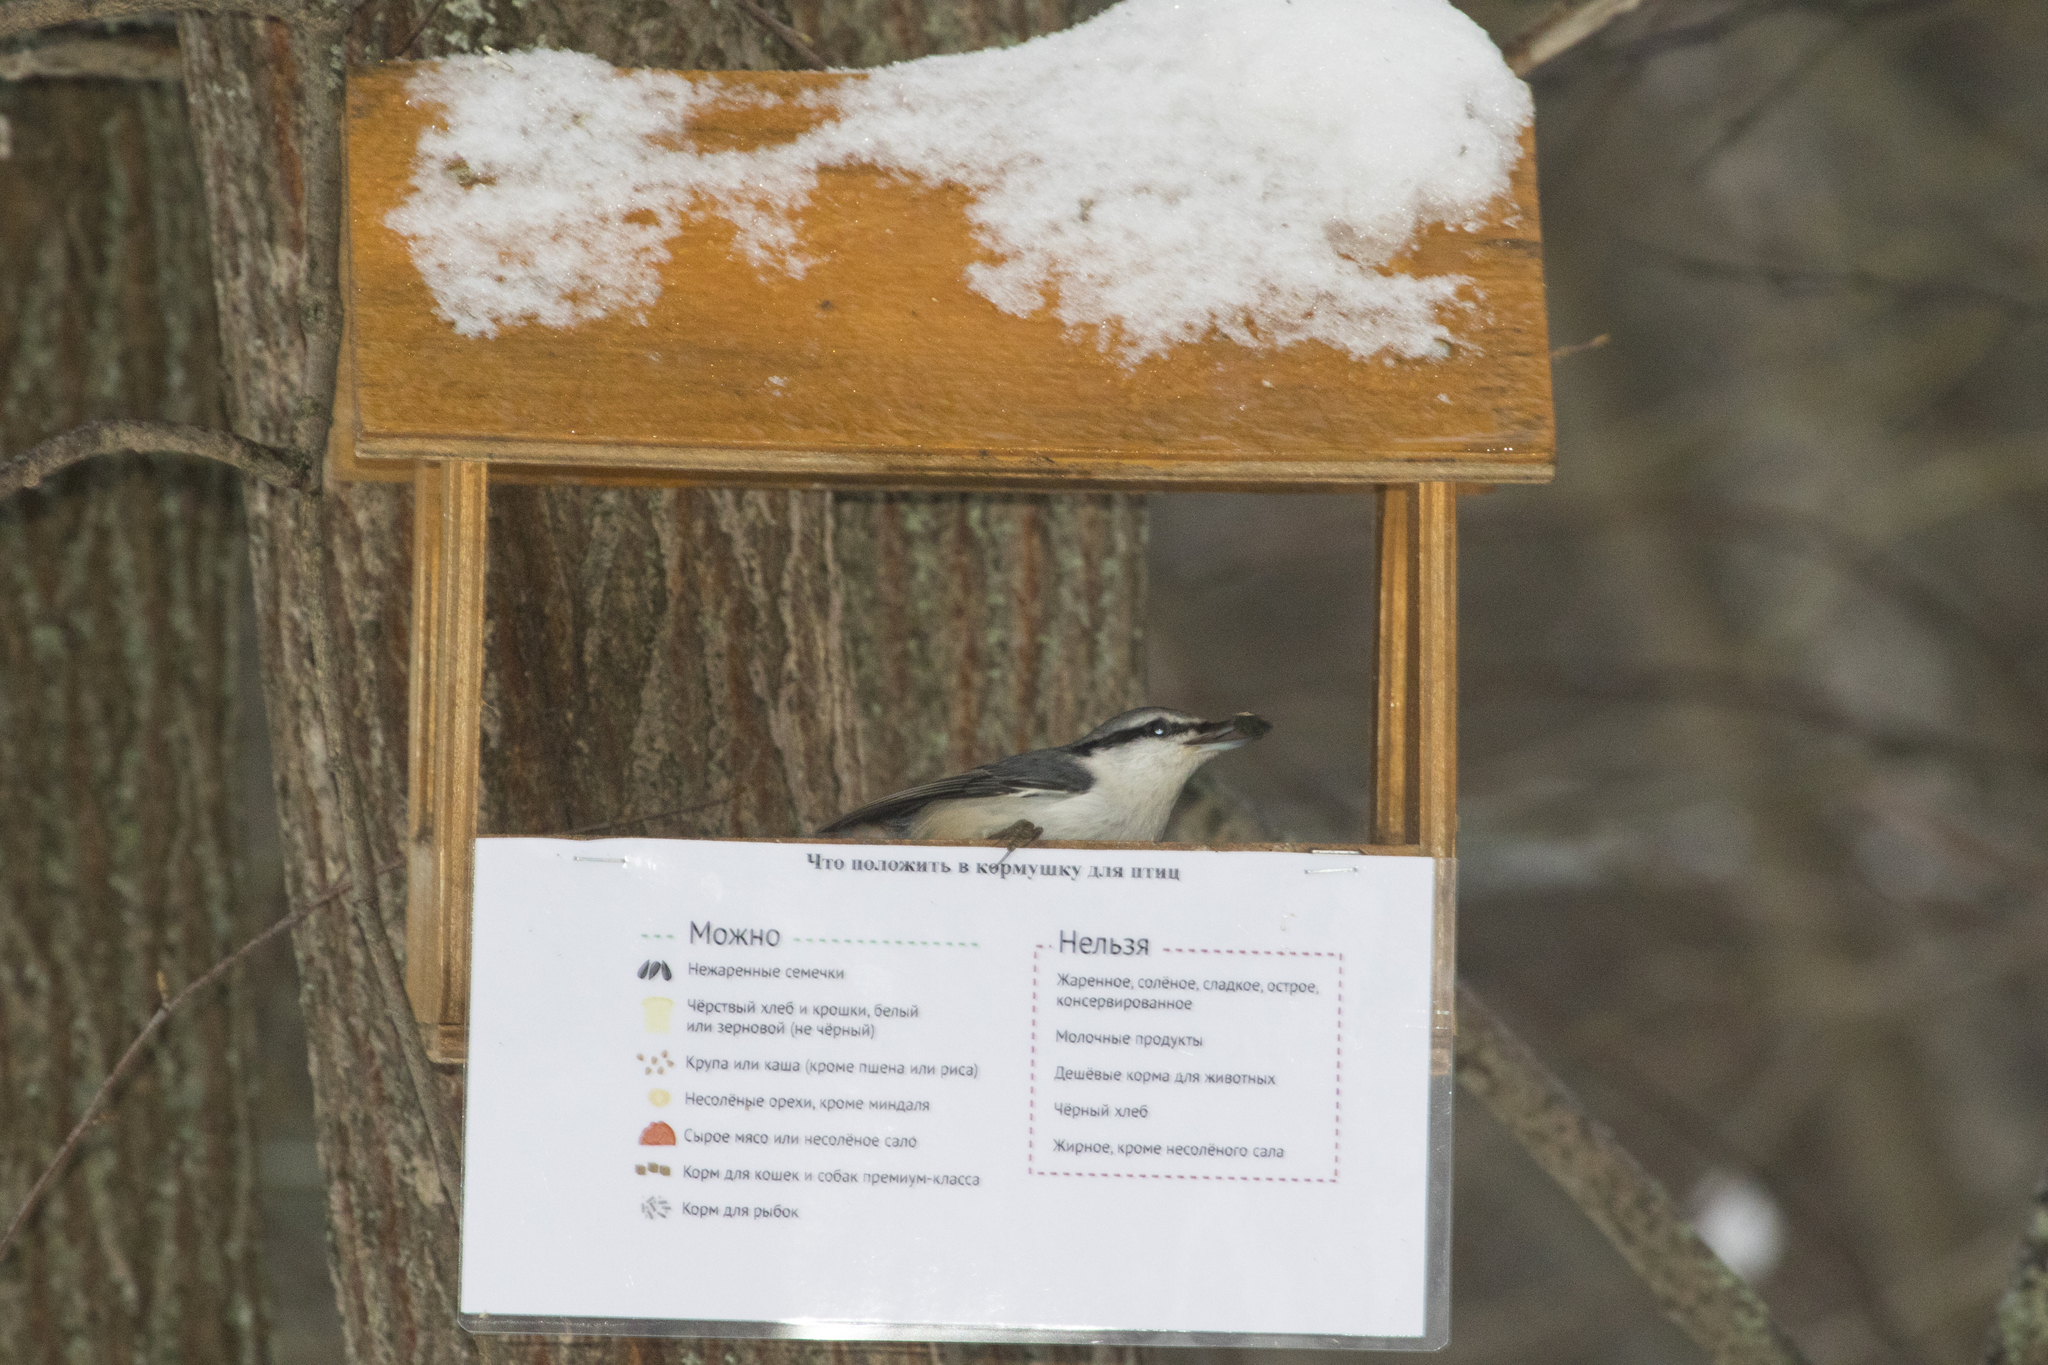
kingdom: Animalia
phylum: Chordata
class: Aves
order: Passeriformes
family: Sittidae
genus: Sitta
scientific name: Sitta europaea
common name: Eurasian nuthatch
